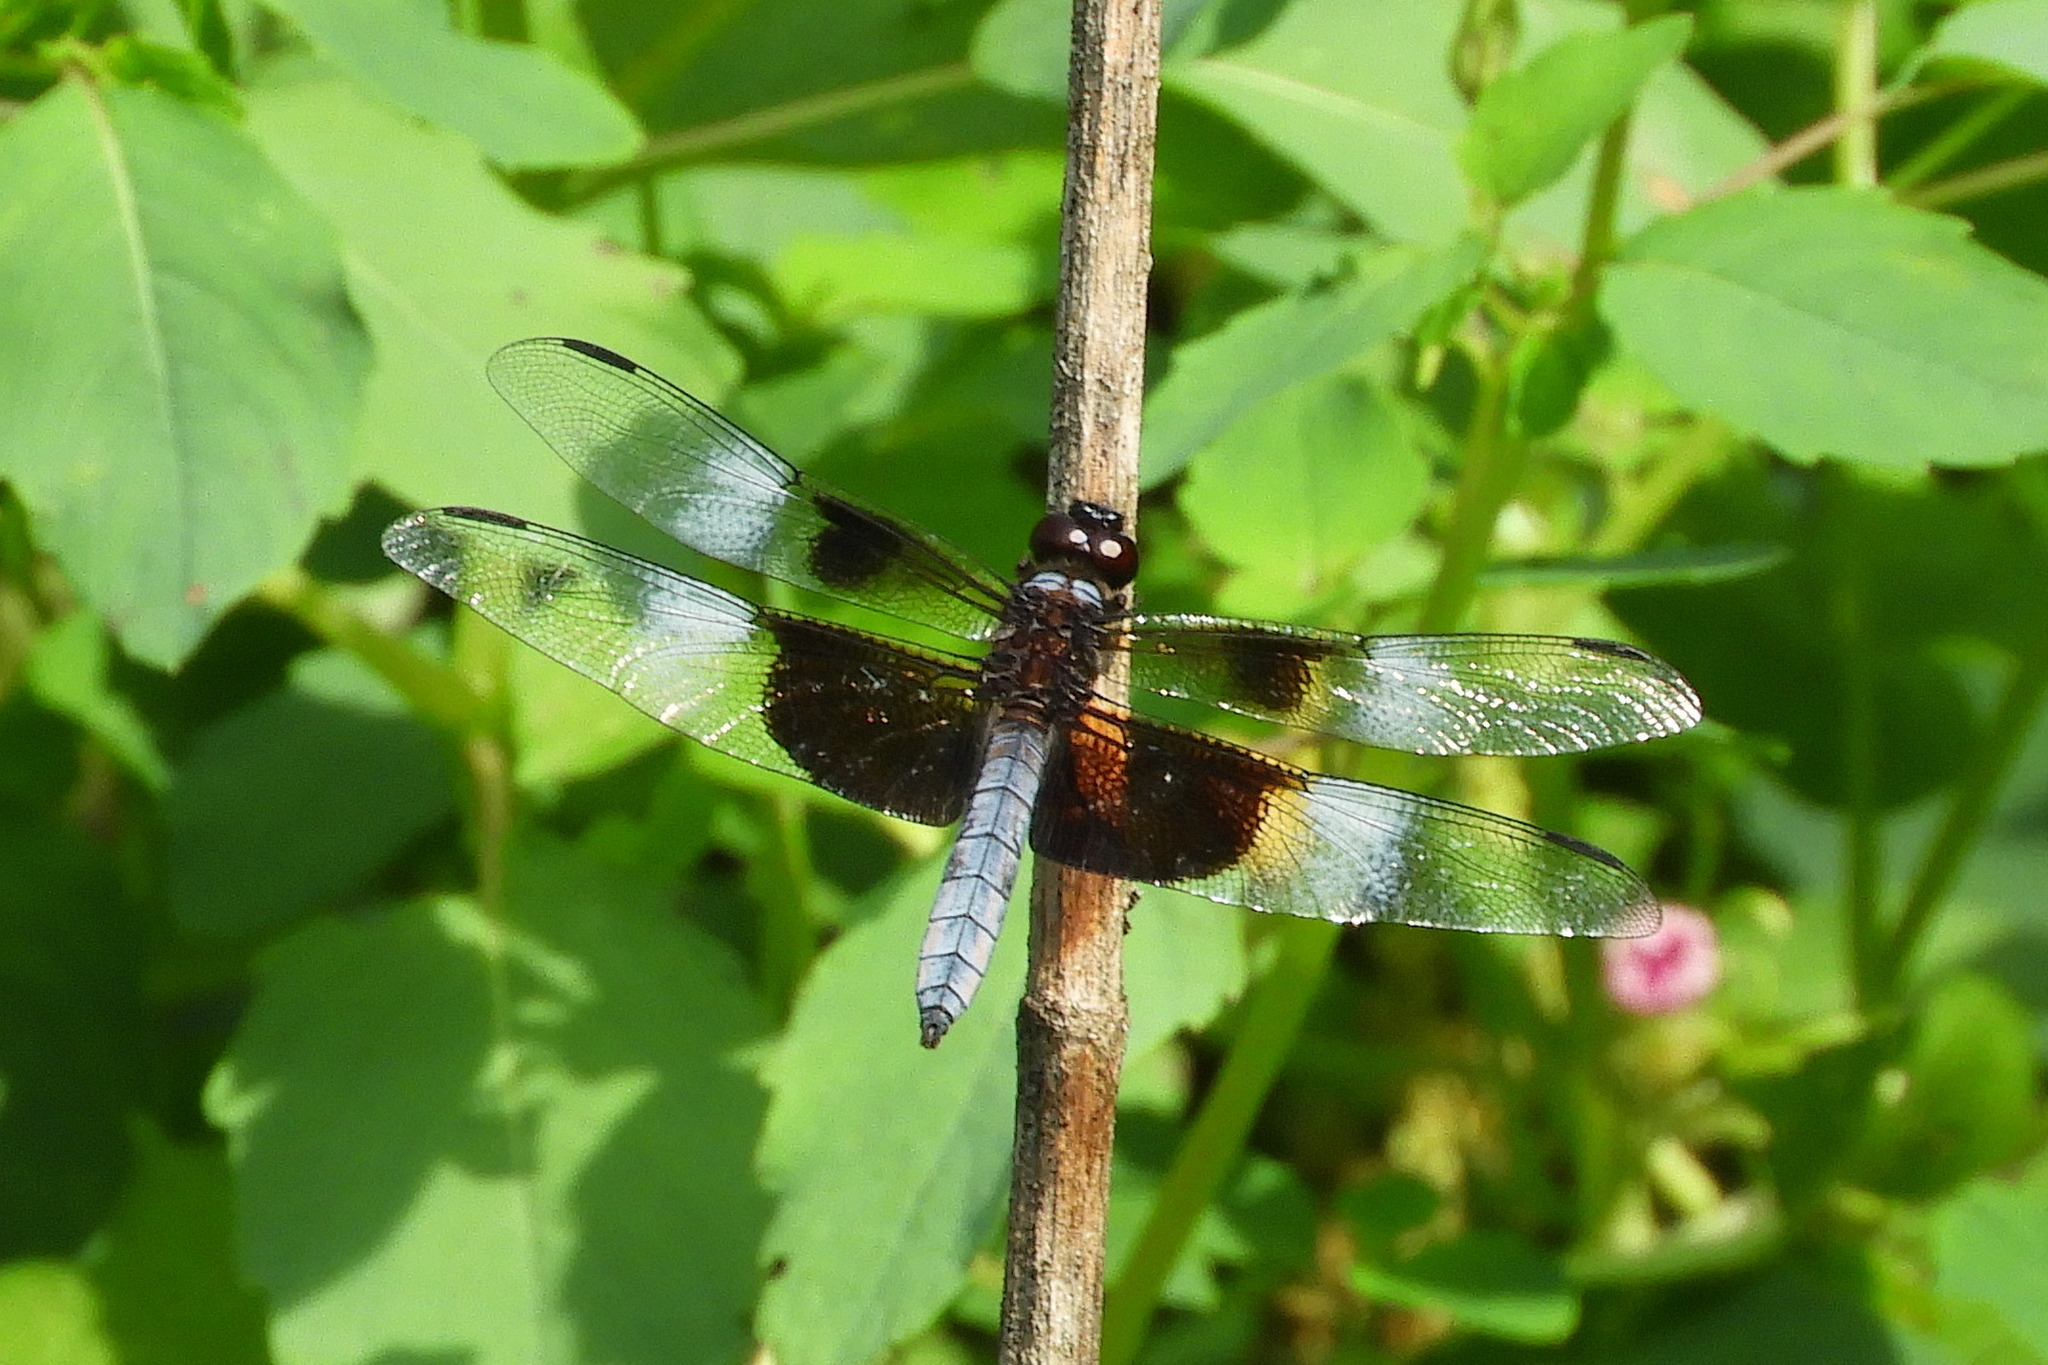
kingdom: Animalia
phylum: Arthropoda
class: Insecta
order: Odonata
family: Libellulidae
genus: Libellula
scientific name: Libellula luctuosa
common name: Widow skimmer
